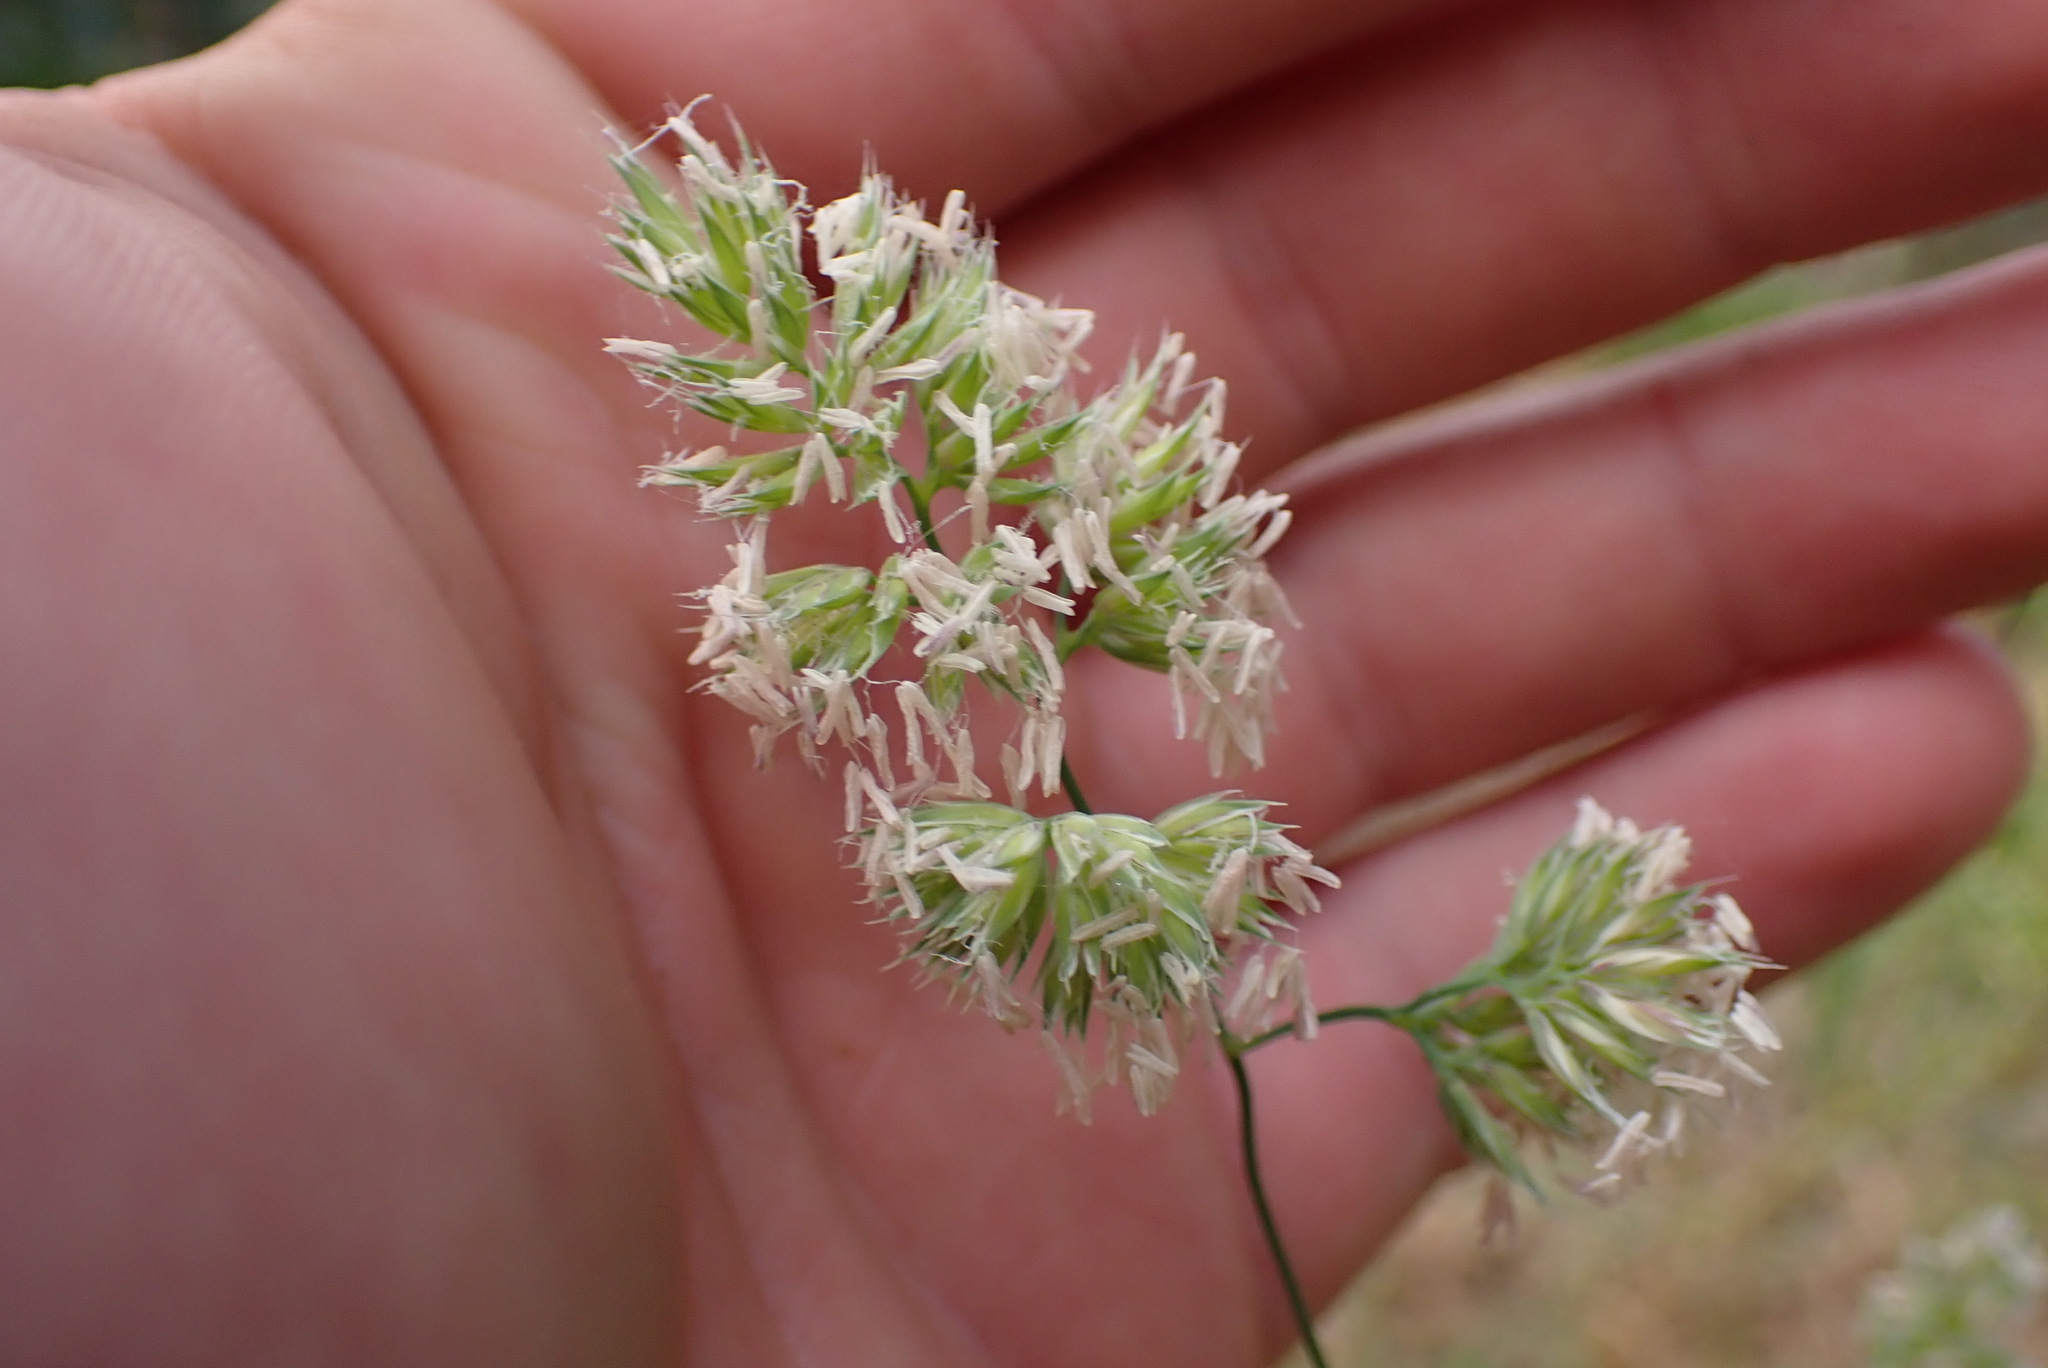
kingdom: Plantae
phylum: Tracheophyta
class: Liliopsida
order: Poales
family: Poaceae
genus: Dactylis
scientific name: Dactylis glomerata
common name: Orchardgrass
